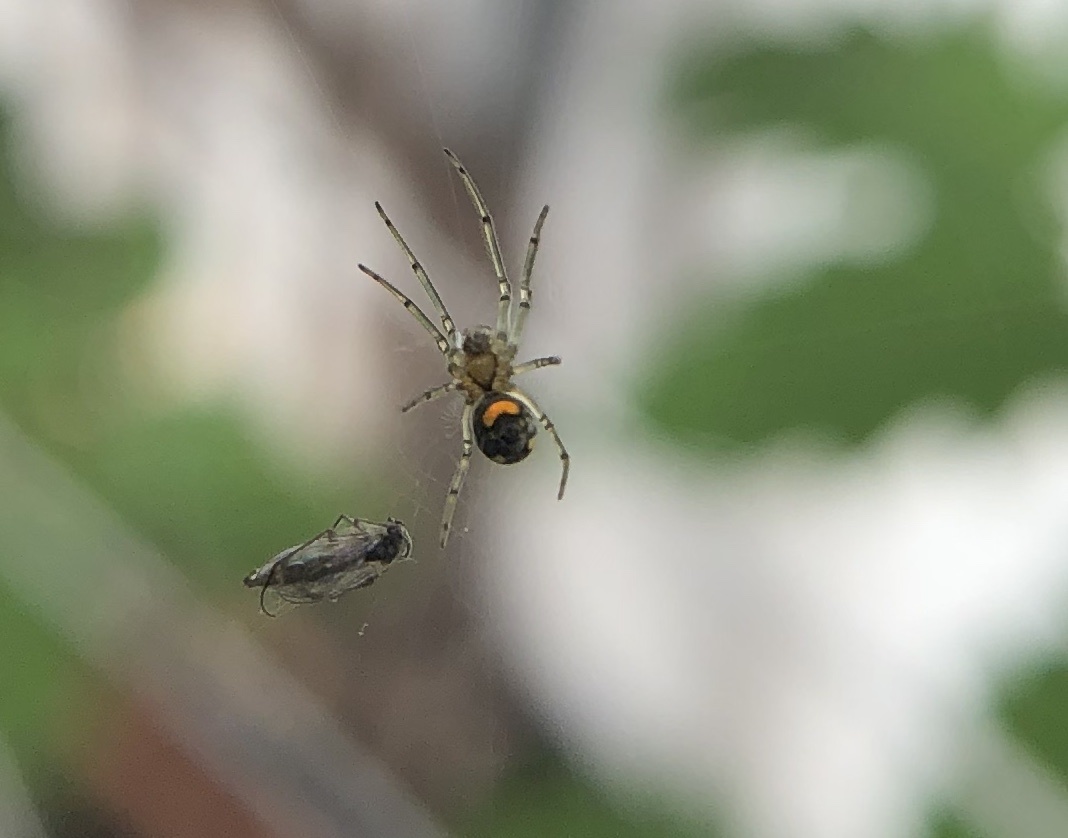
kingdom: Animalia
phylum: Arthropoda
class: Arachnida
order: Araneae
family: Tetragnathidae
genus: Leucauge
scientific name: Leucauge venusta
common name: Longjawed orb weavers
